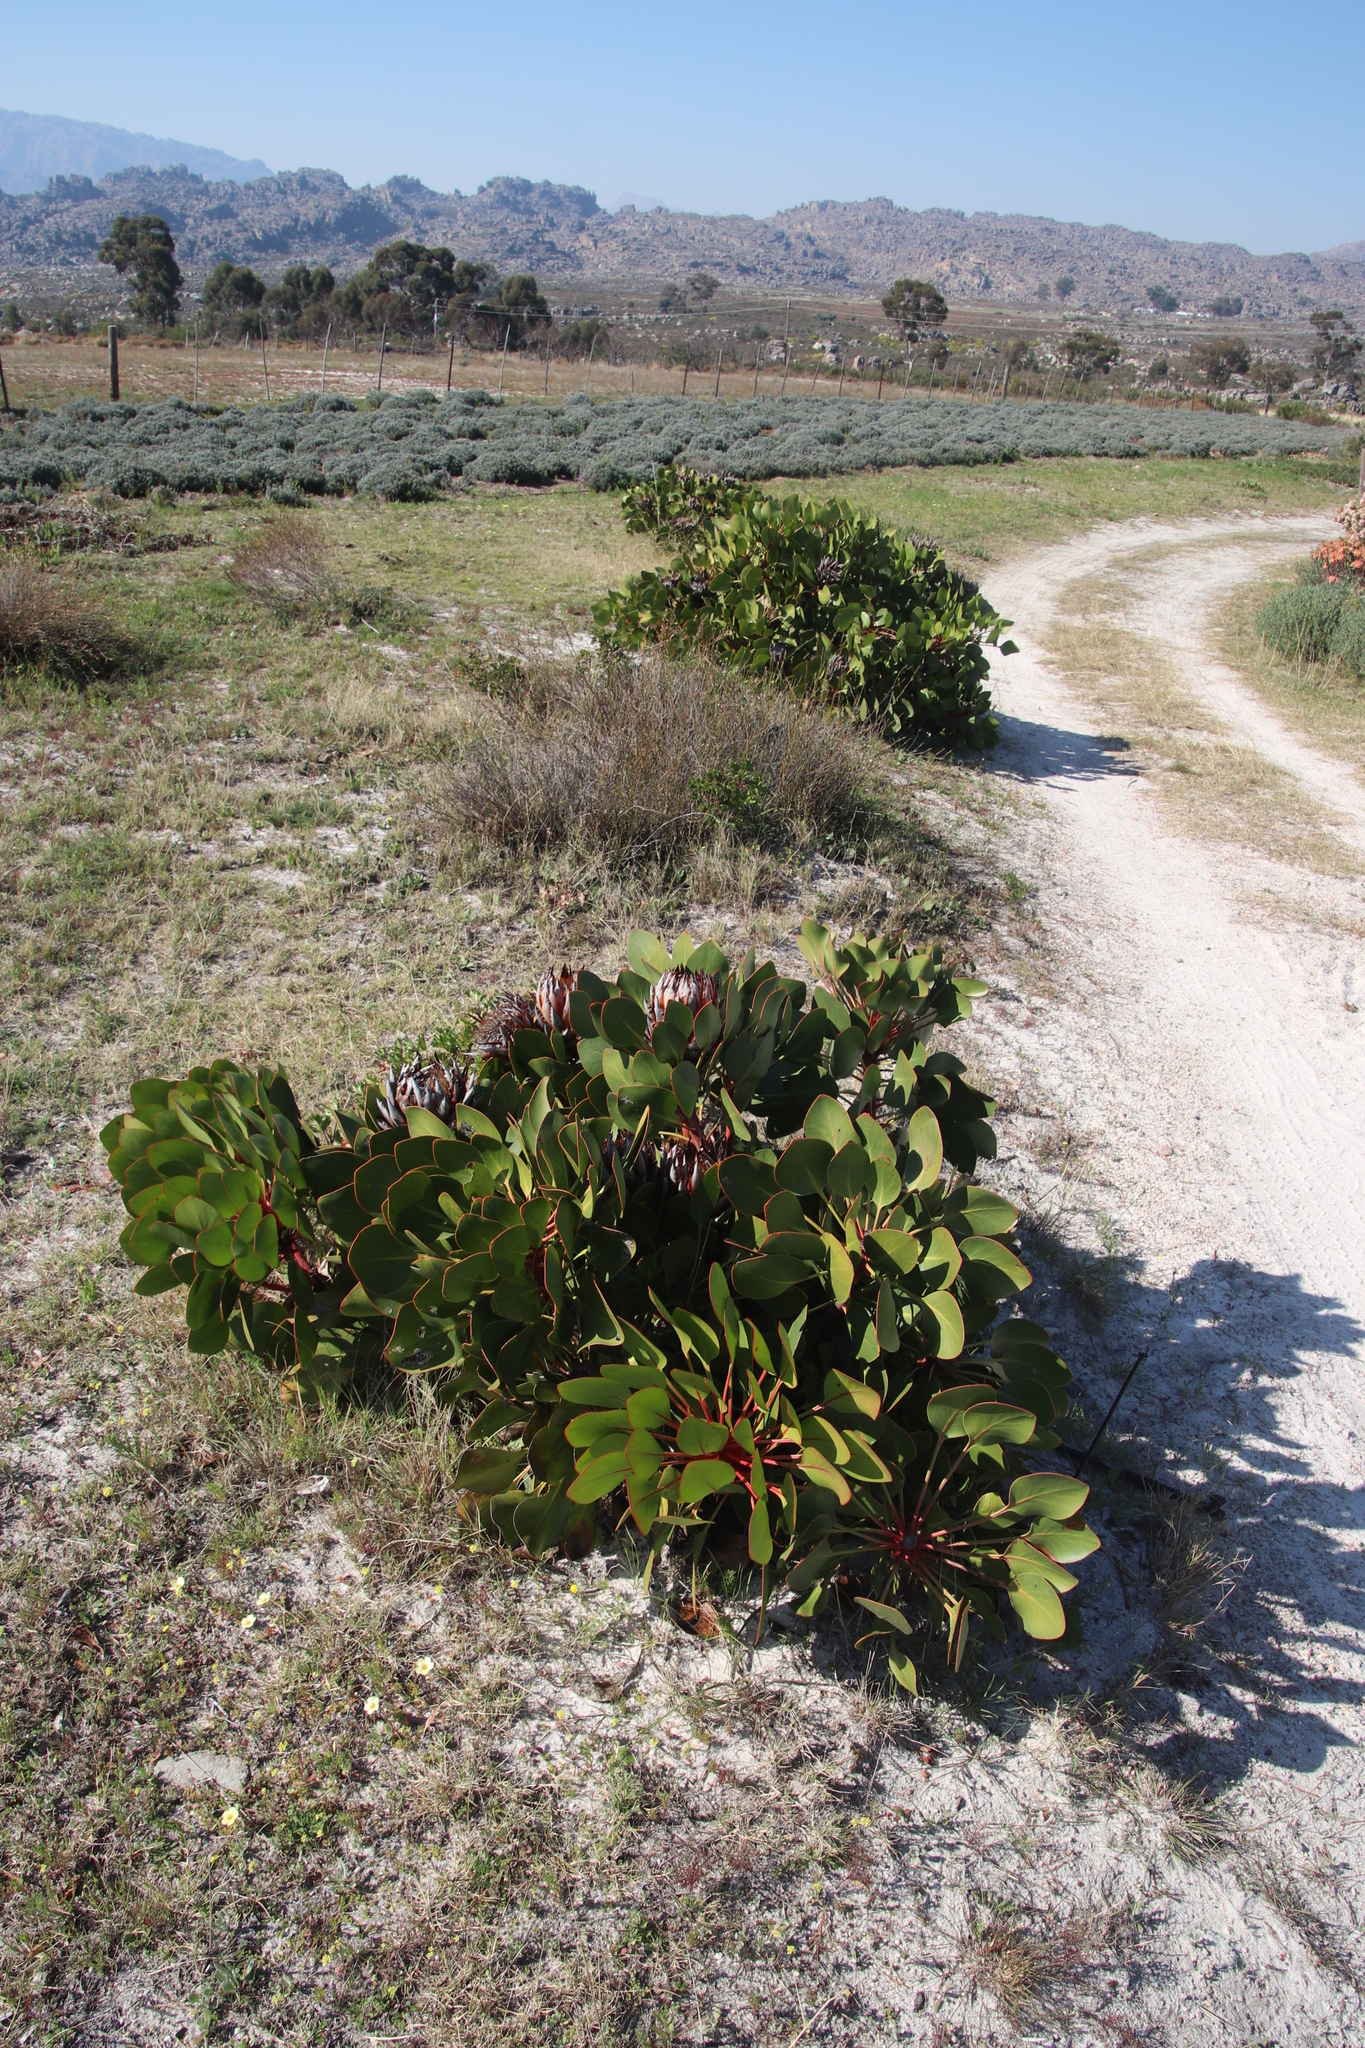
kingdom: Plantae
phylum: Tracheophyta
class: Magnoliopsida
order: Proteales
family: Proteaceae
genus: Protea
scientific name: Protea cynaroides
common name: King protea
